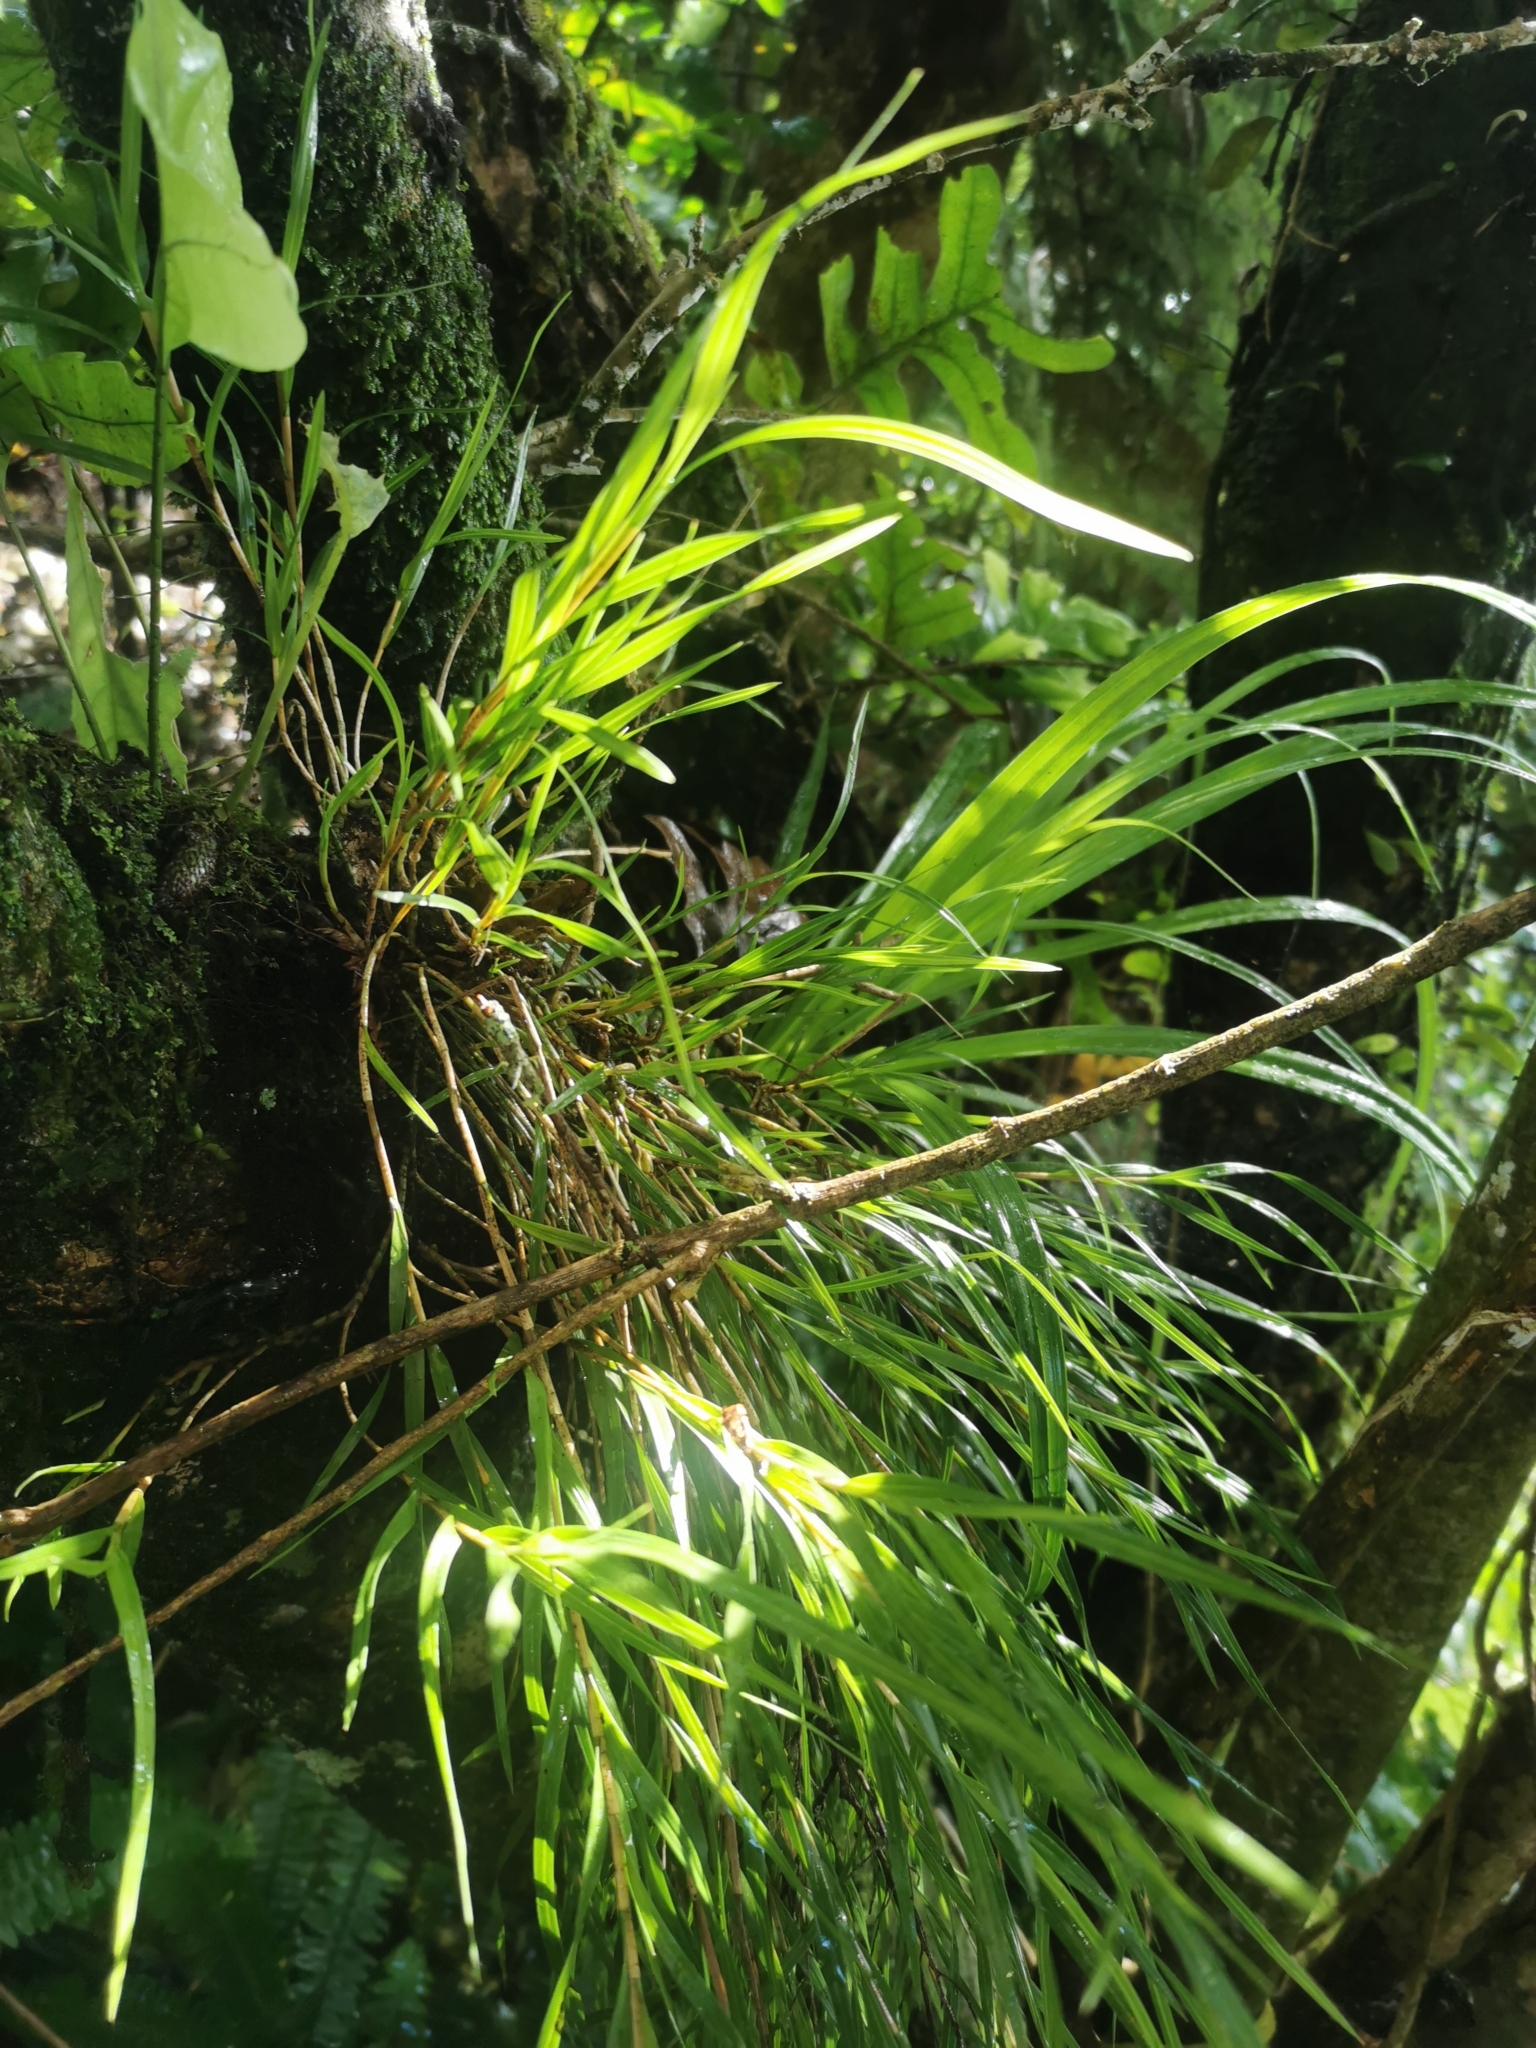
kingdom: Plantae
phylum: Tracheophyta
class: Liliopsida
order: Asparagales
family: Orchidaceae
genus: Earina
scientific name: Earina mucronata
